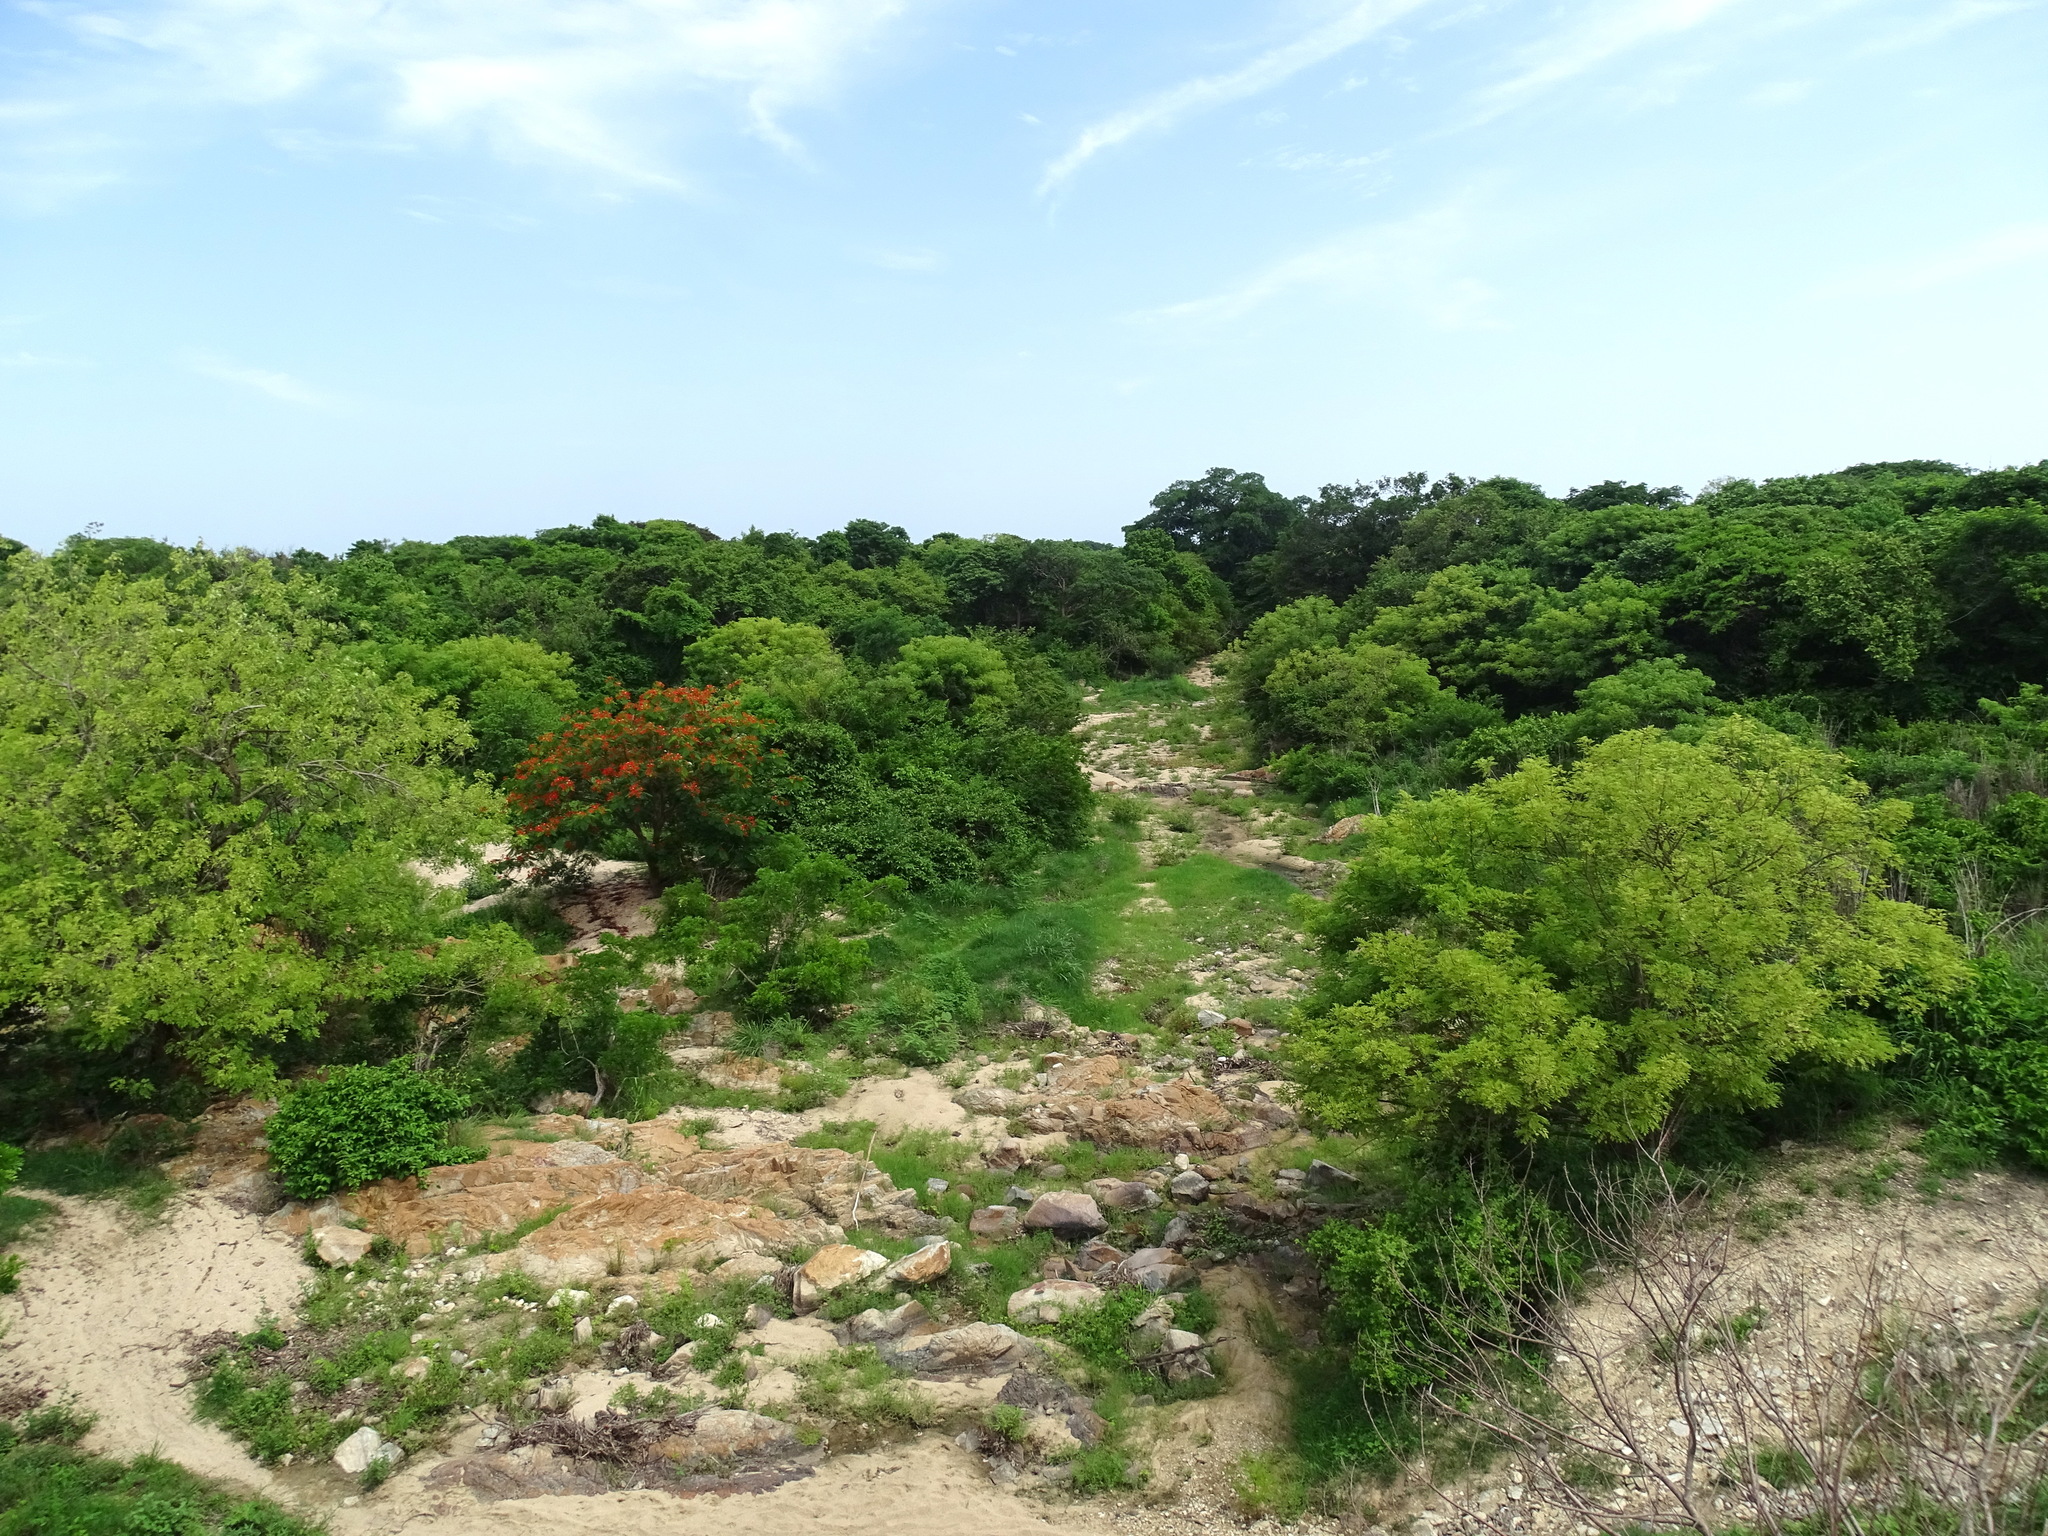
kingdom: Plantae
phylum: Tracheophyta
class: Magnoliopsida
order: Fabales
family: Fabaceae
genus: Delonix
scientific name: Delonix regia
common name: Royal poinciana
